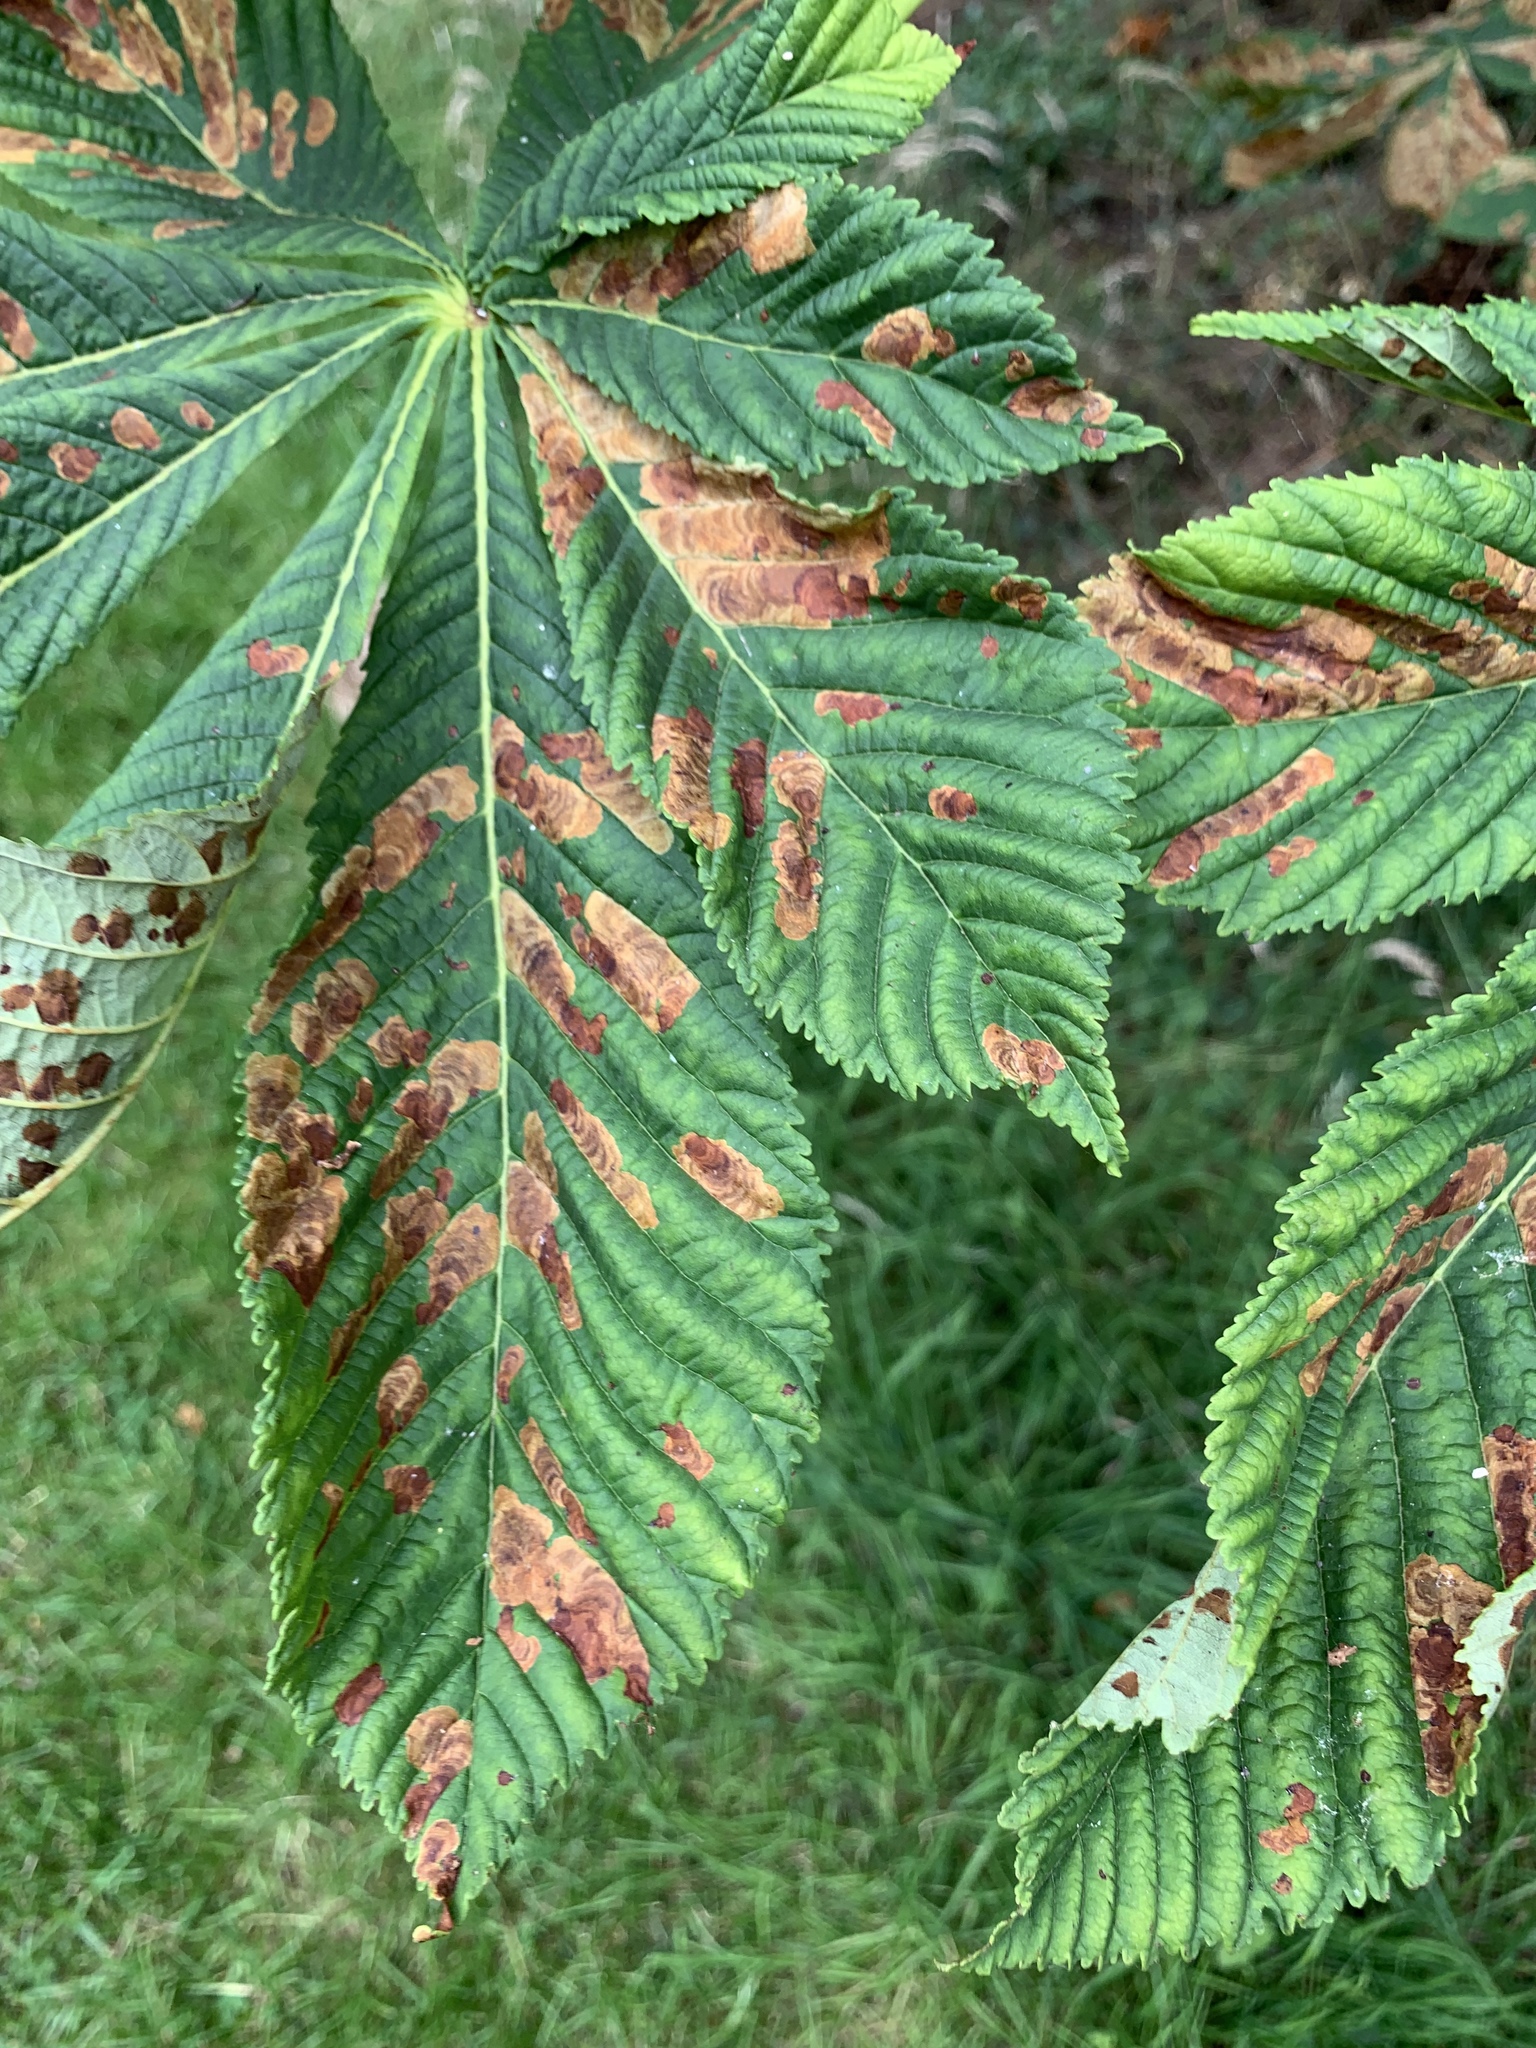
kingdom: Animalia
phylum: Arthropoda
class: Insecta
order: Lepidoptera
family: Gracillariidae
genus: Cameraria
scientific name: Cameraria ohridella
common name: Horse-chestnut leaf-miner
